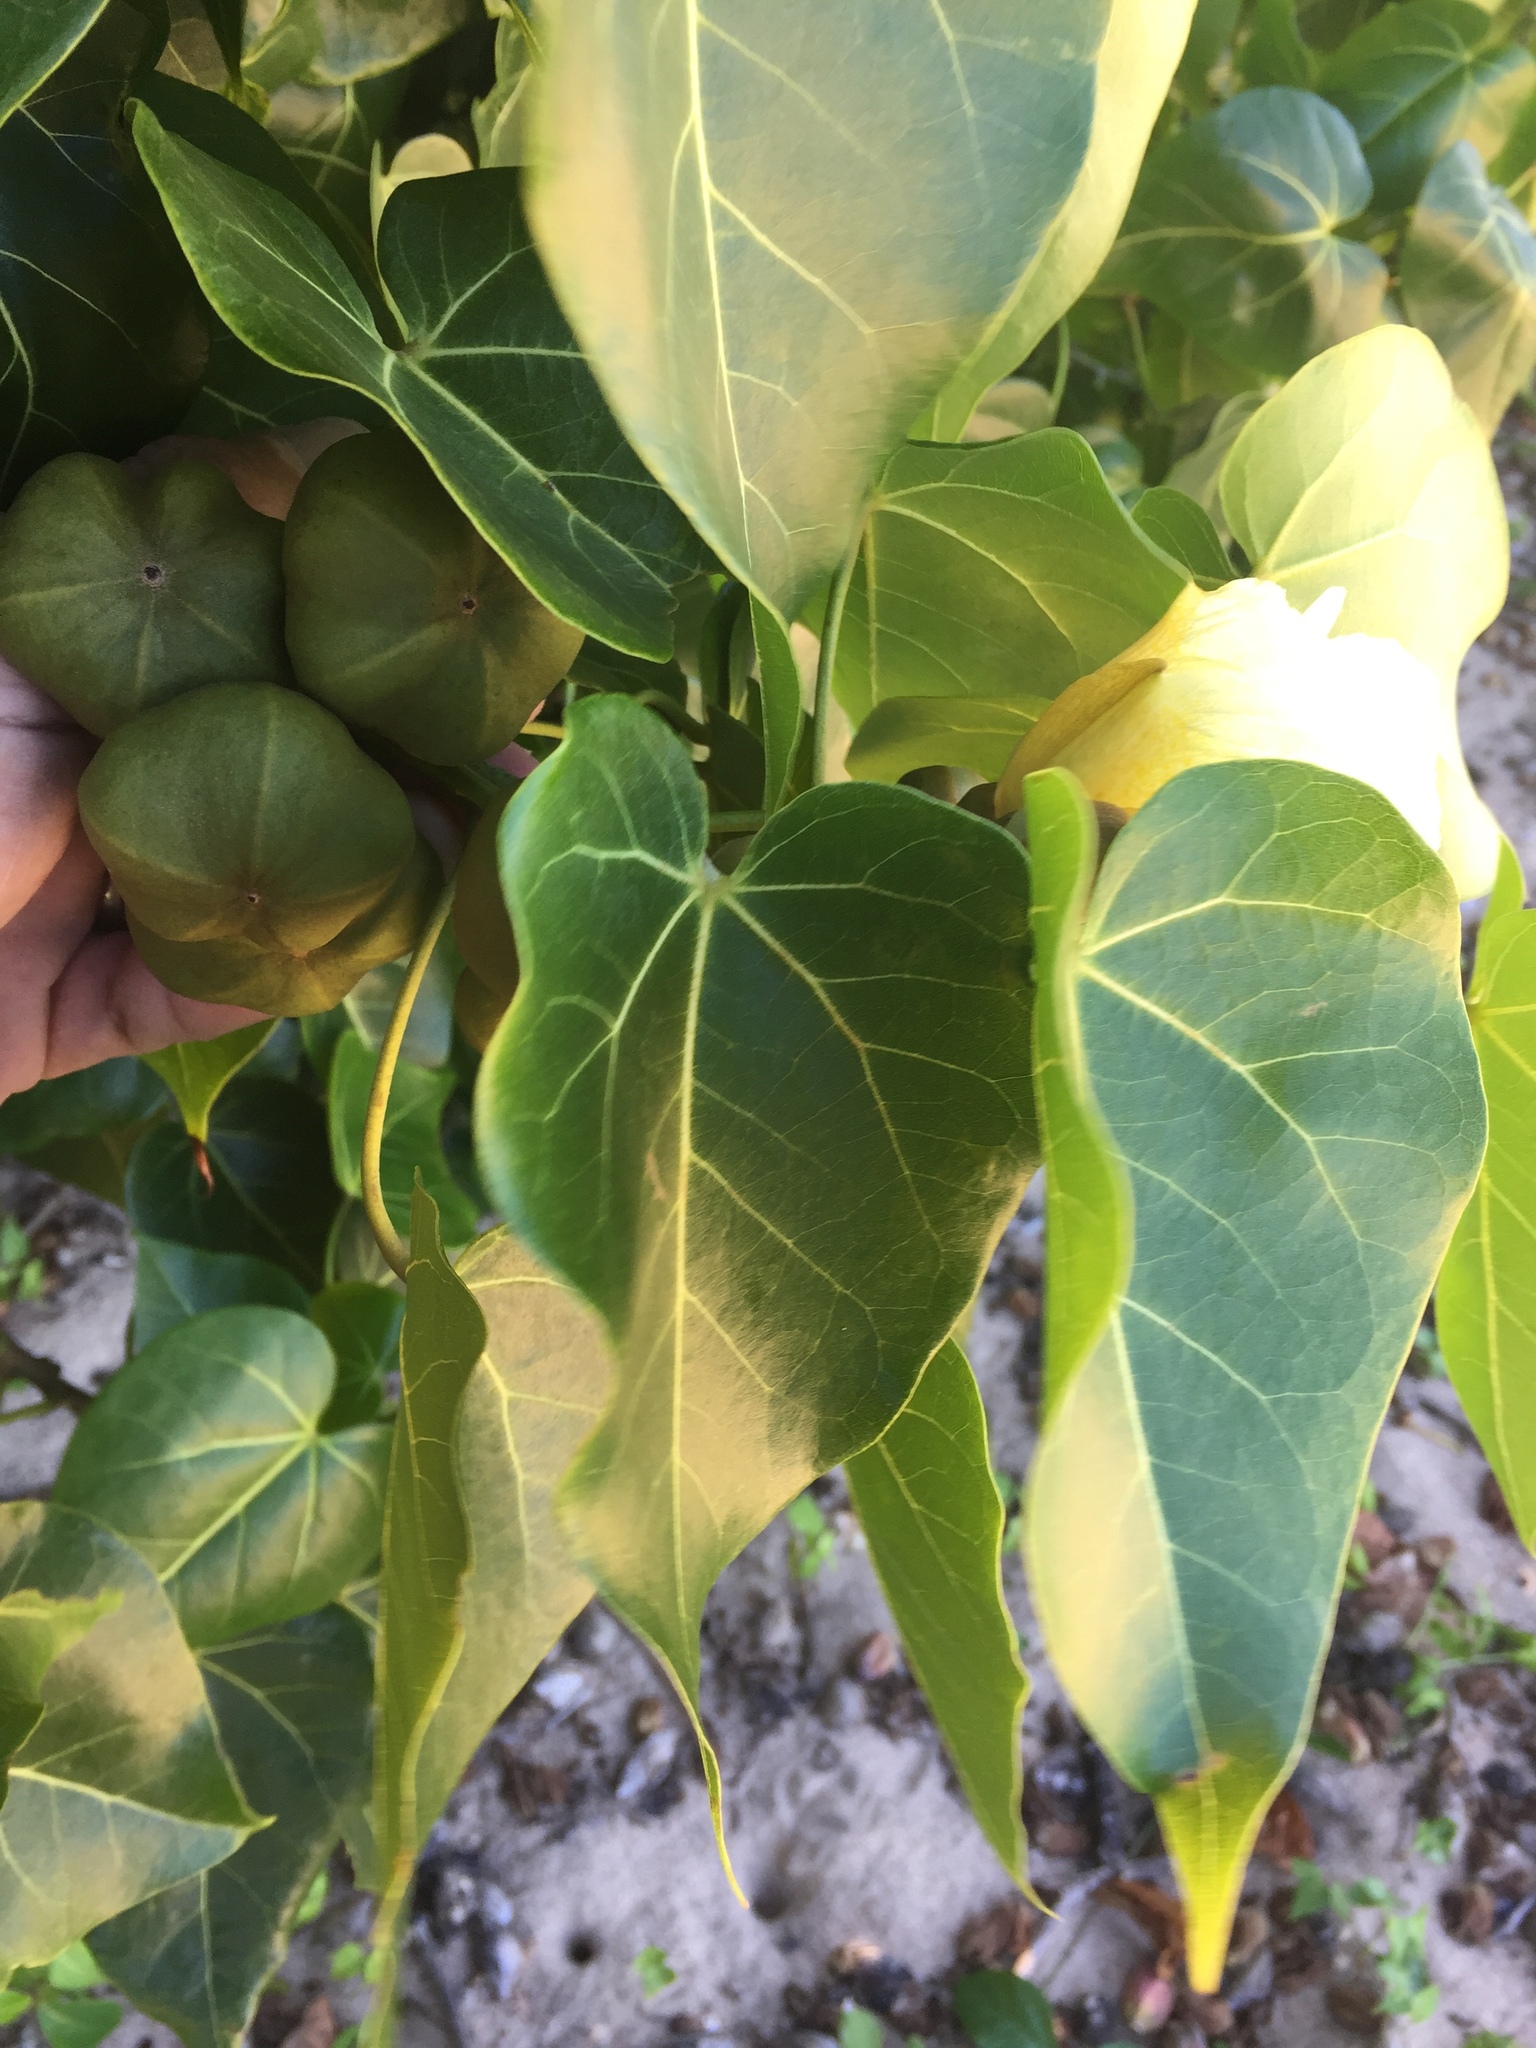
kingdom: Plantae
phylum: Tracheophyta
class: Magnoliopsida
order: Malvales
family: Malvaceae
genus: Thespesia
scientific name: Thespesia populnea
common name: Seaside mahoe
